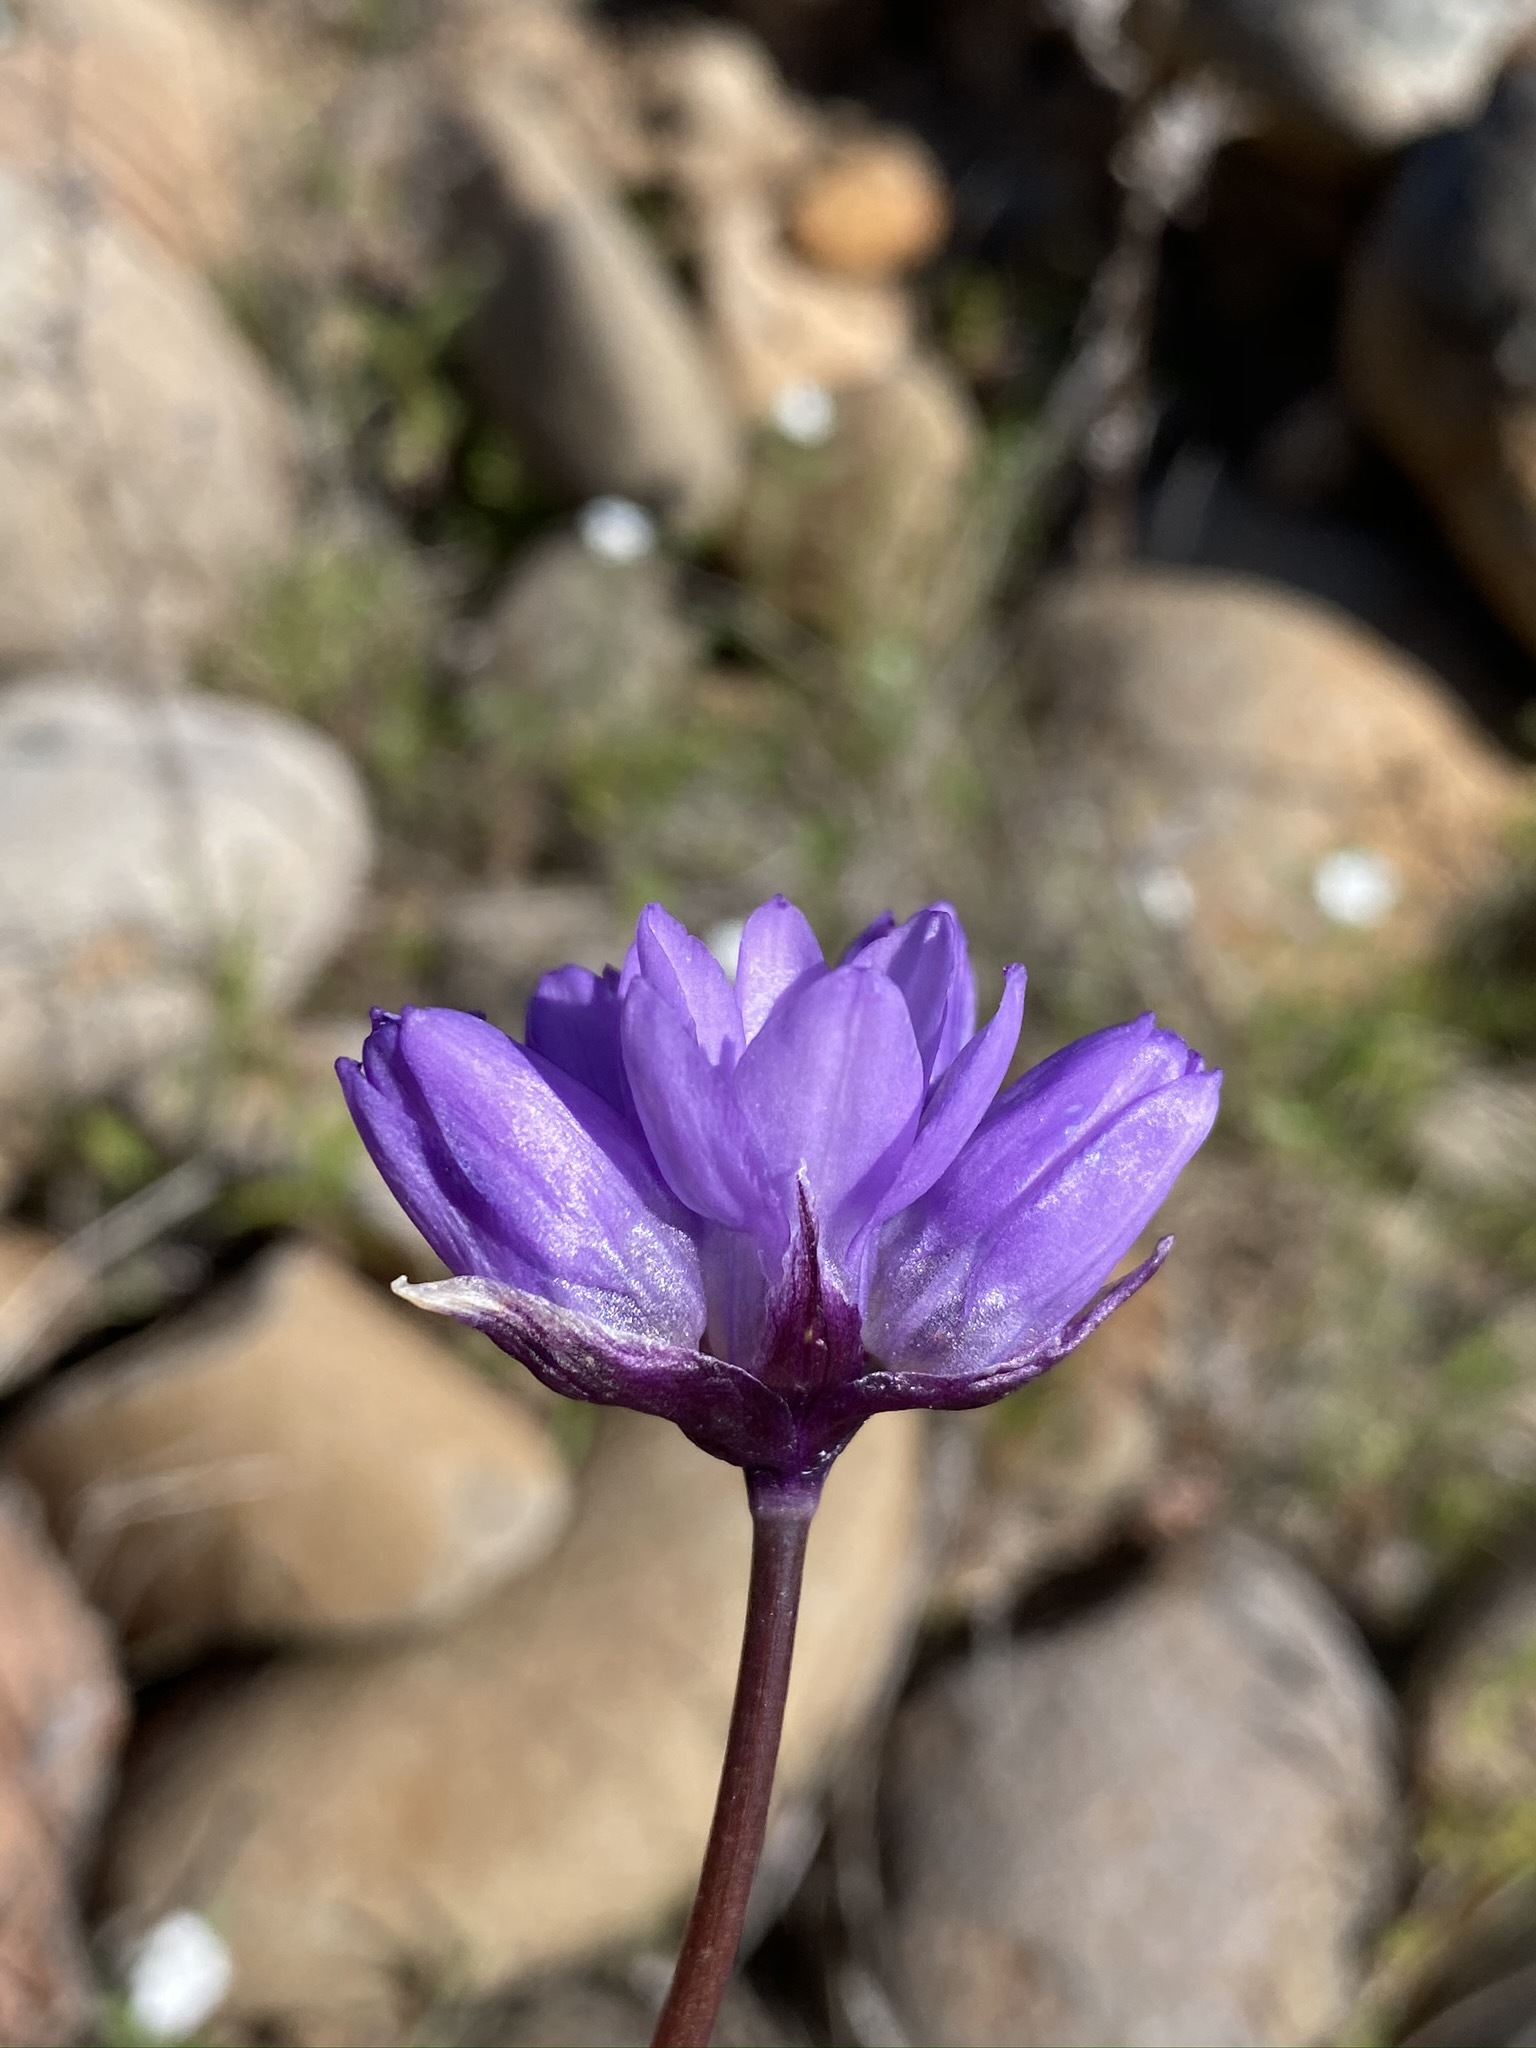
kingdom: Plantae
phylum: Tracheophyta
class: Liliopsida
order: Asparagales
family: Asparagaceae
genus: Dipterostemon
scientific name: Dipterostemon capitatus
